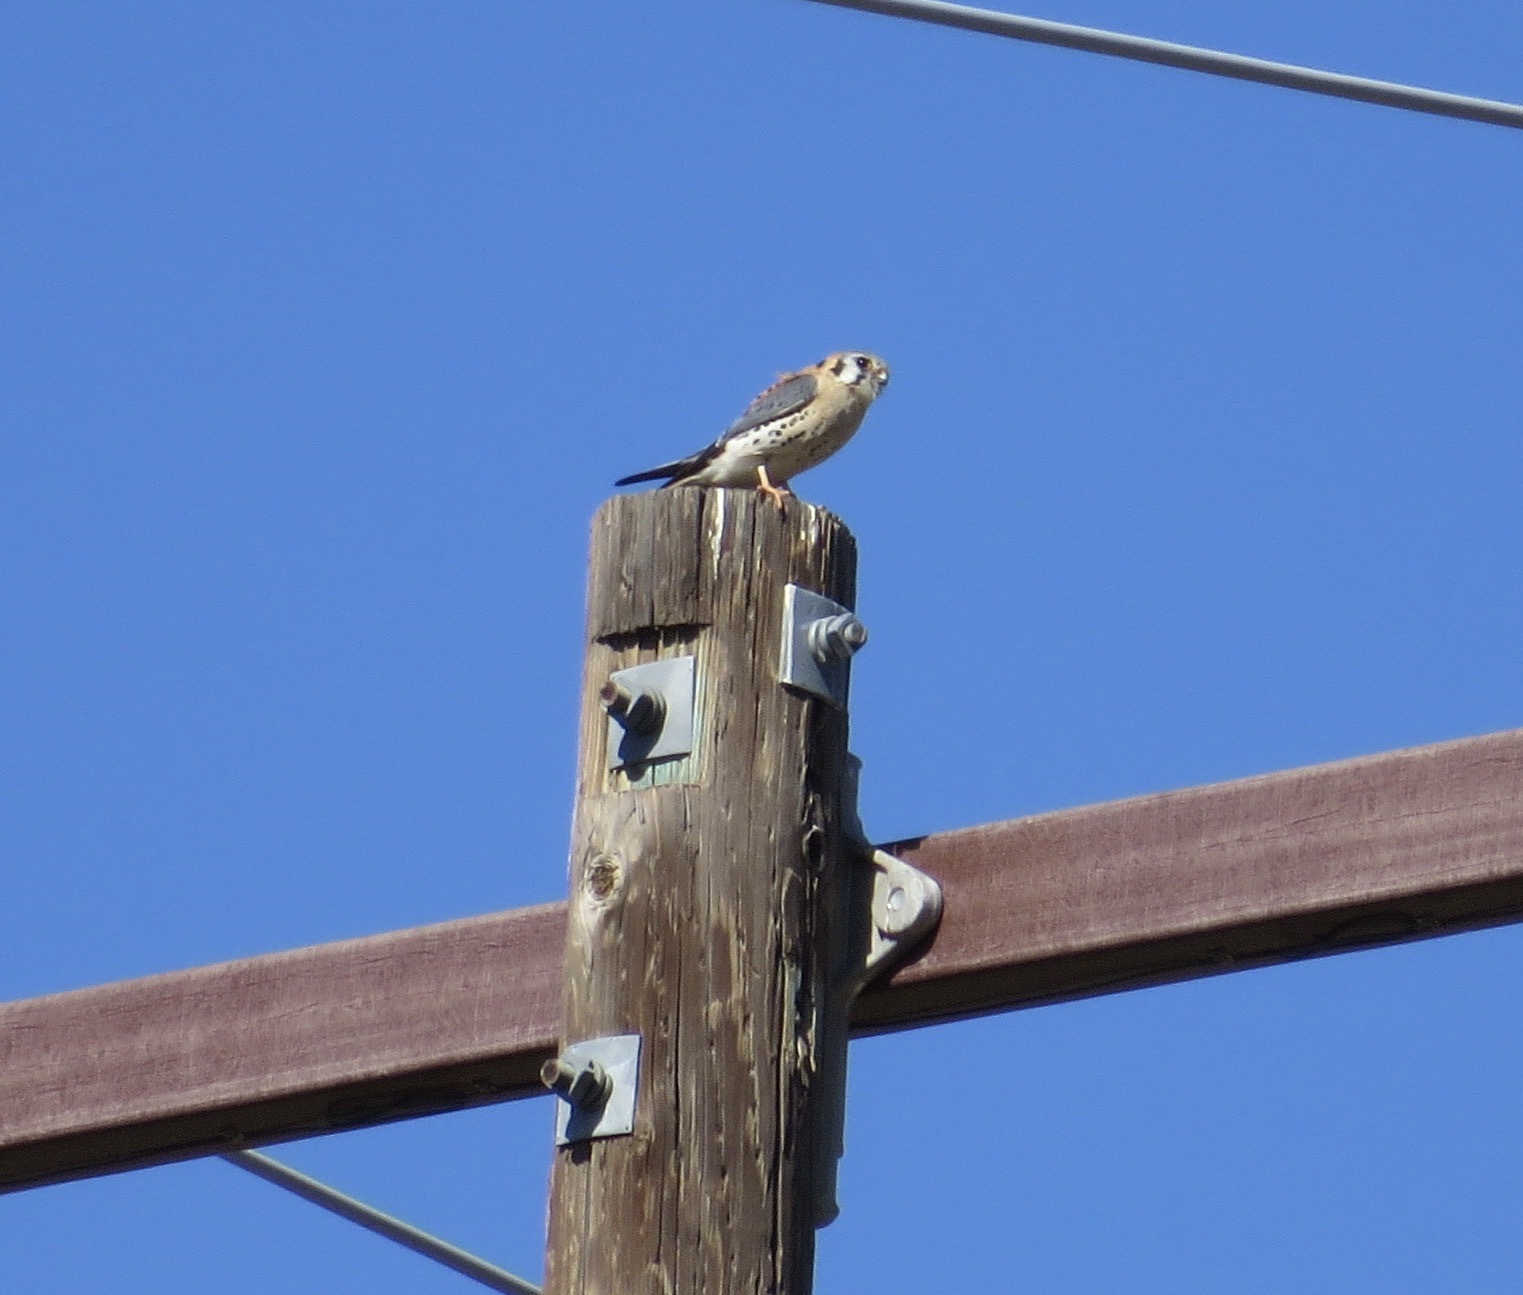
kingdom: Animalia
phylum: Chordata
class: Aves
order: Falconiformes
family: Falconidae
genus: Falco
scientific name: Falco sparverius
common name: American kestrel
